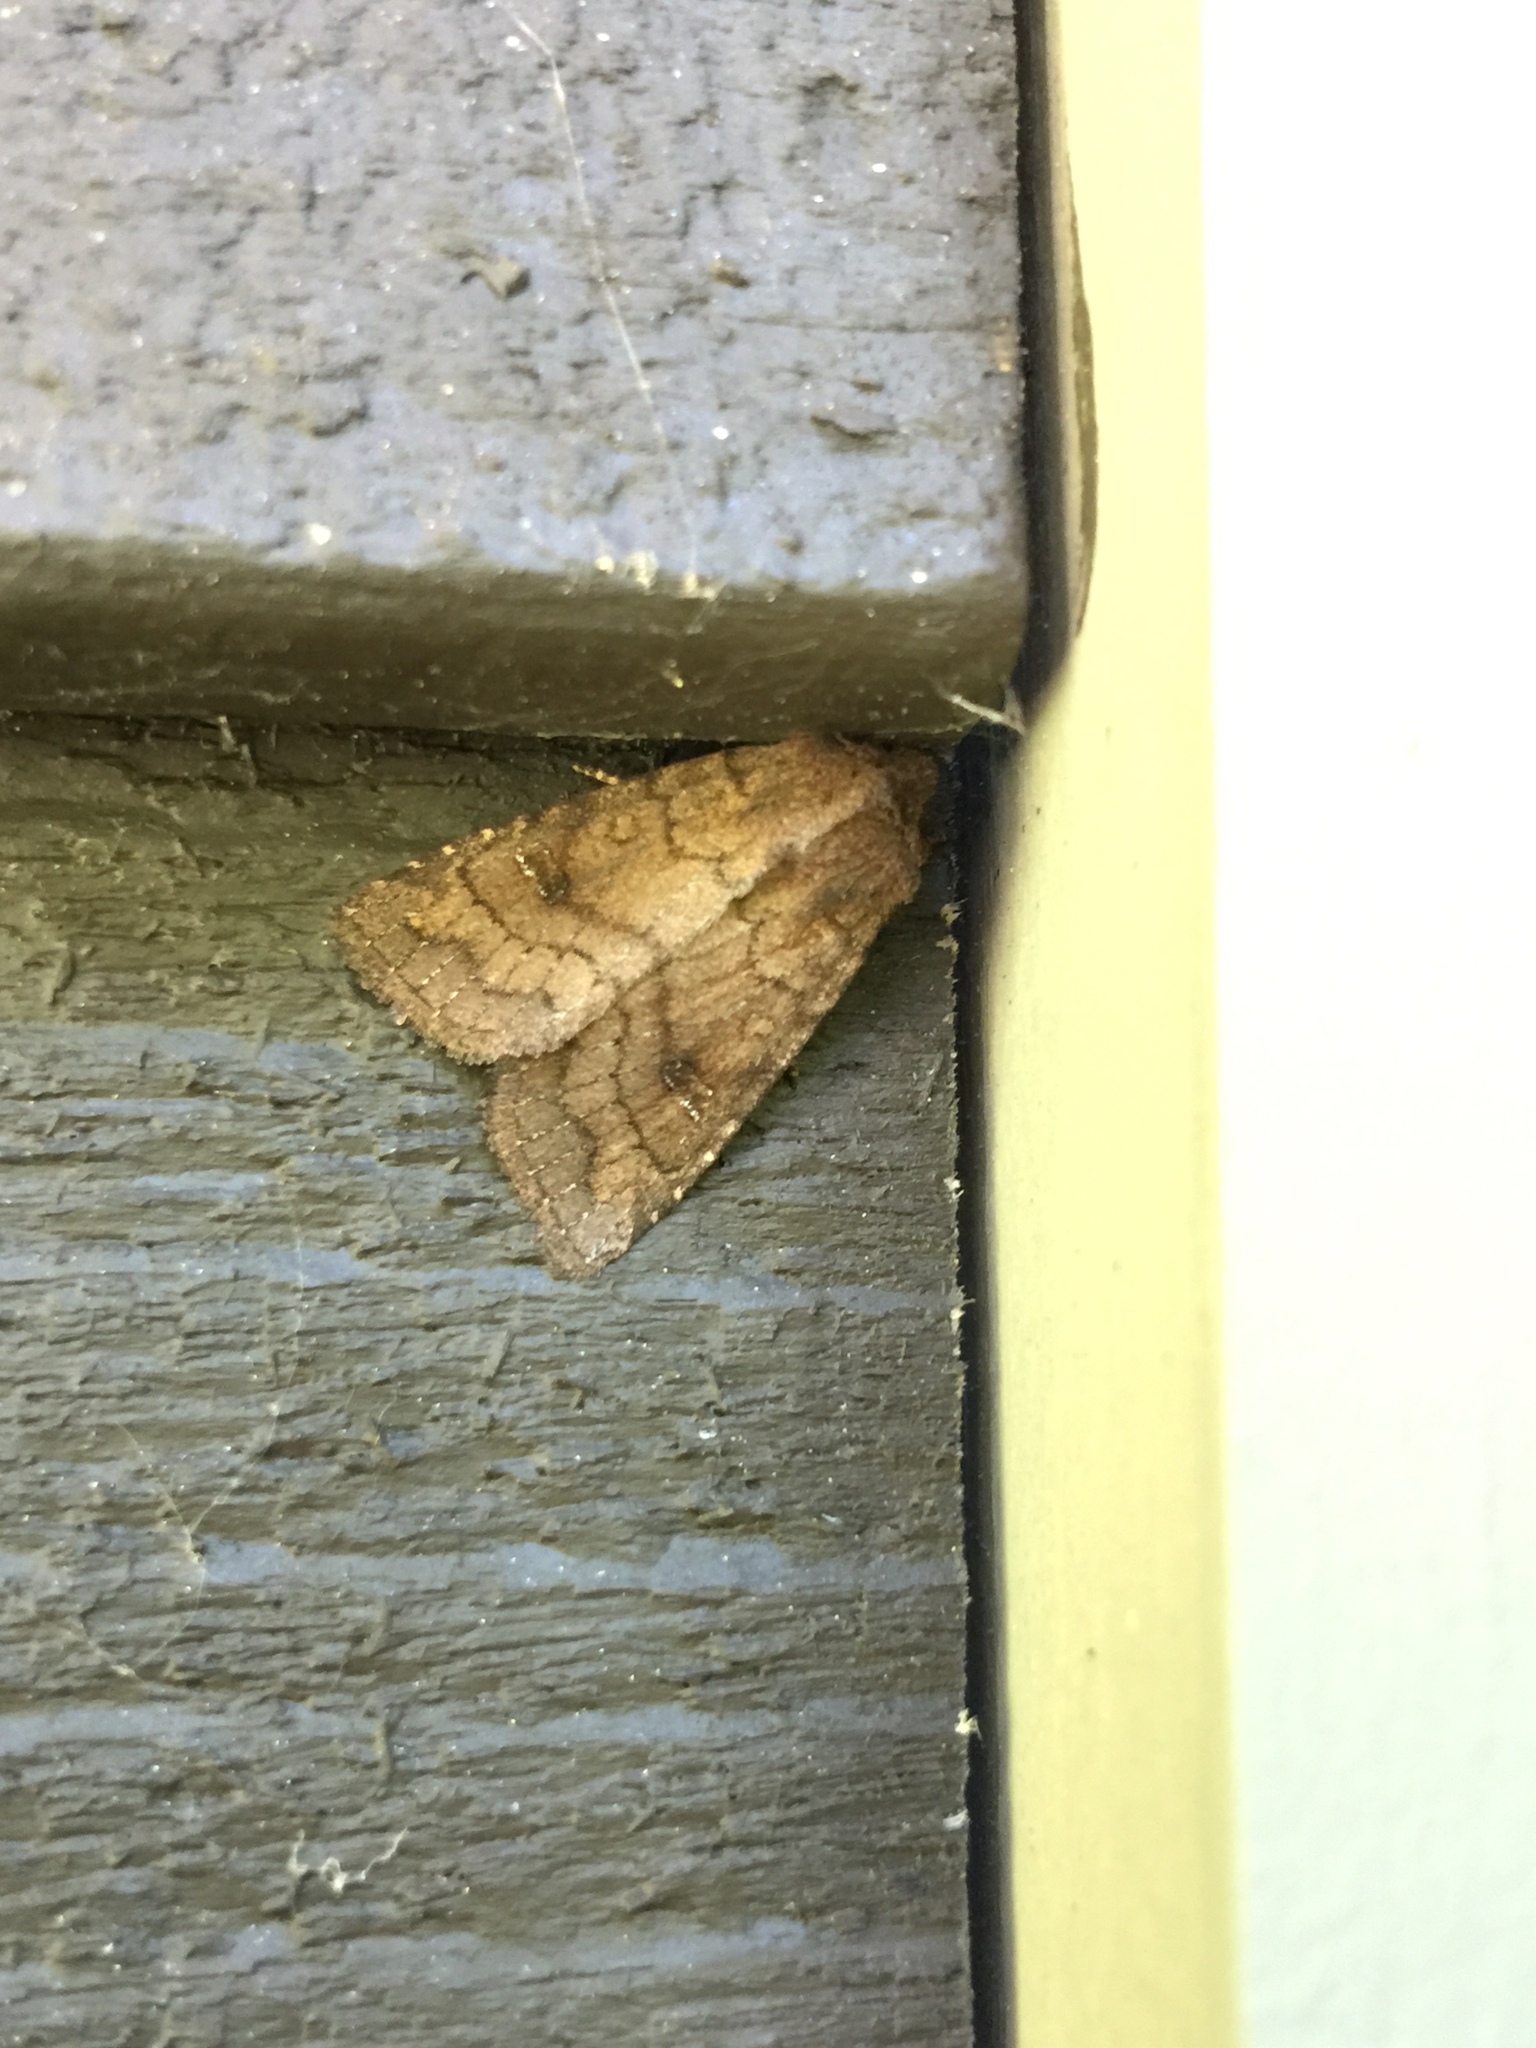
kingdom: Animalia
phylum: Arthropoda
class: Insecta
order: Lepidoptera
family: Noctuidae
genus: Tricholita
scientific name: Tricholita signata
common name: Signate quaker
